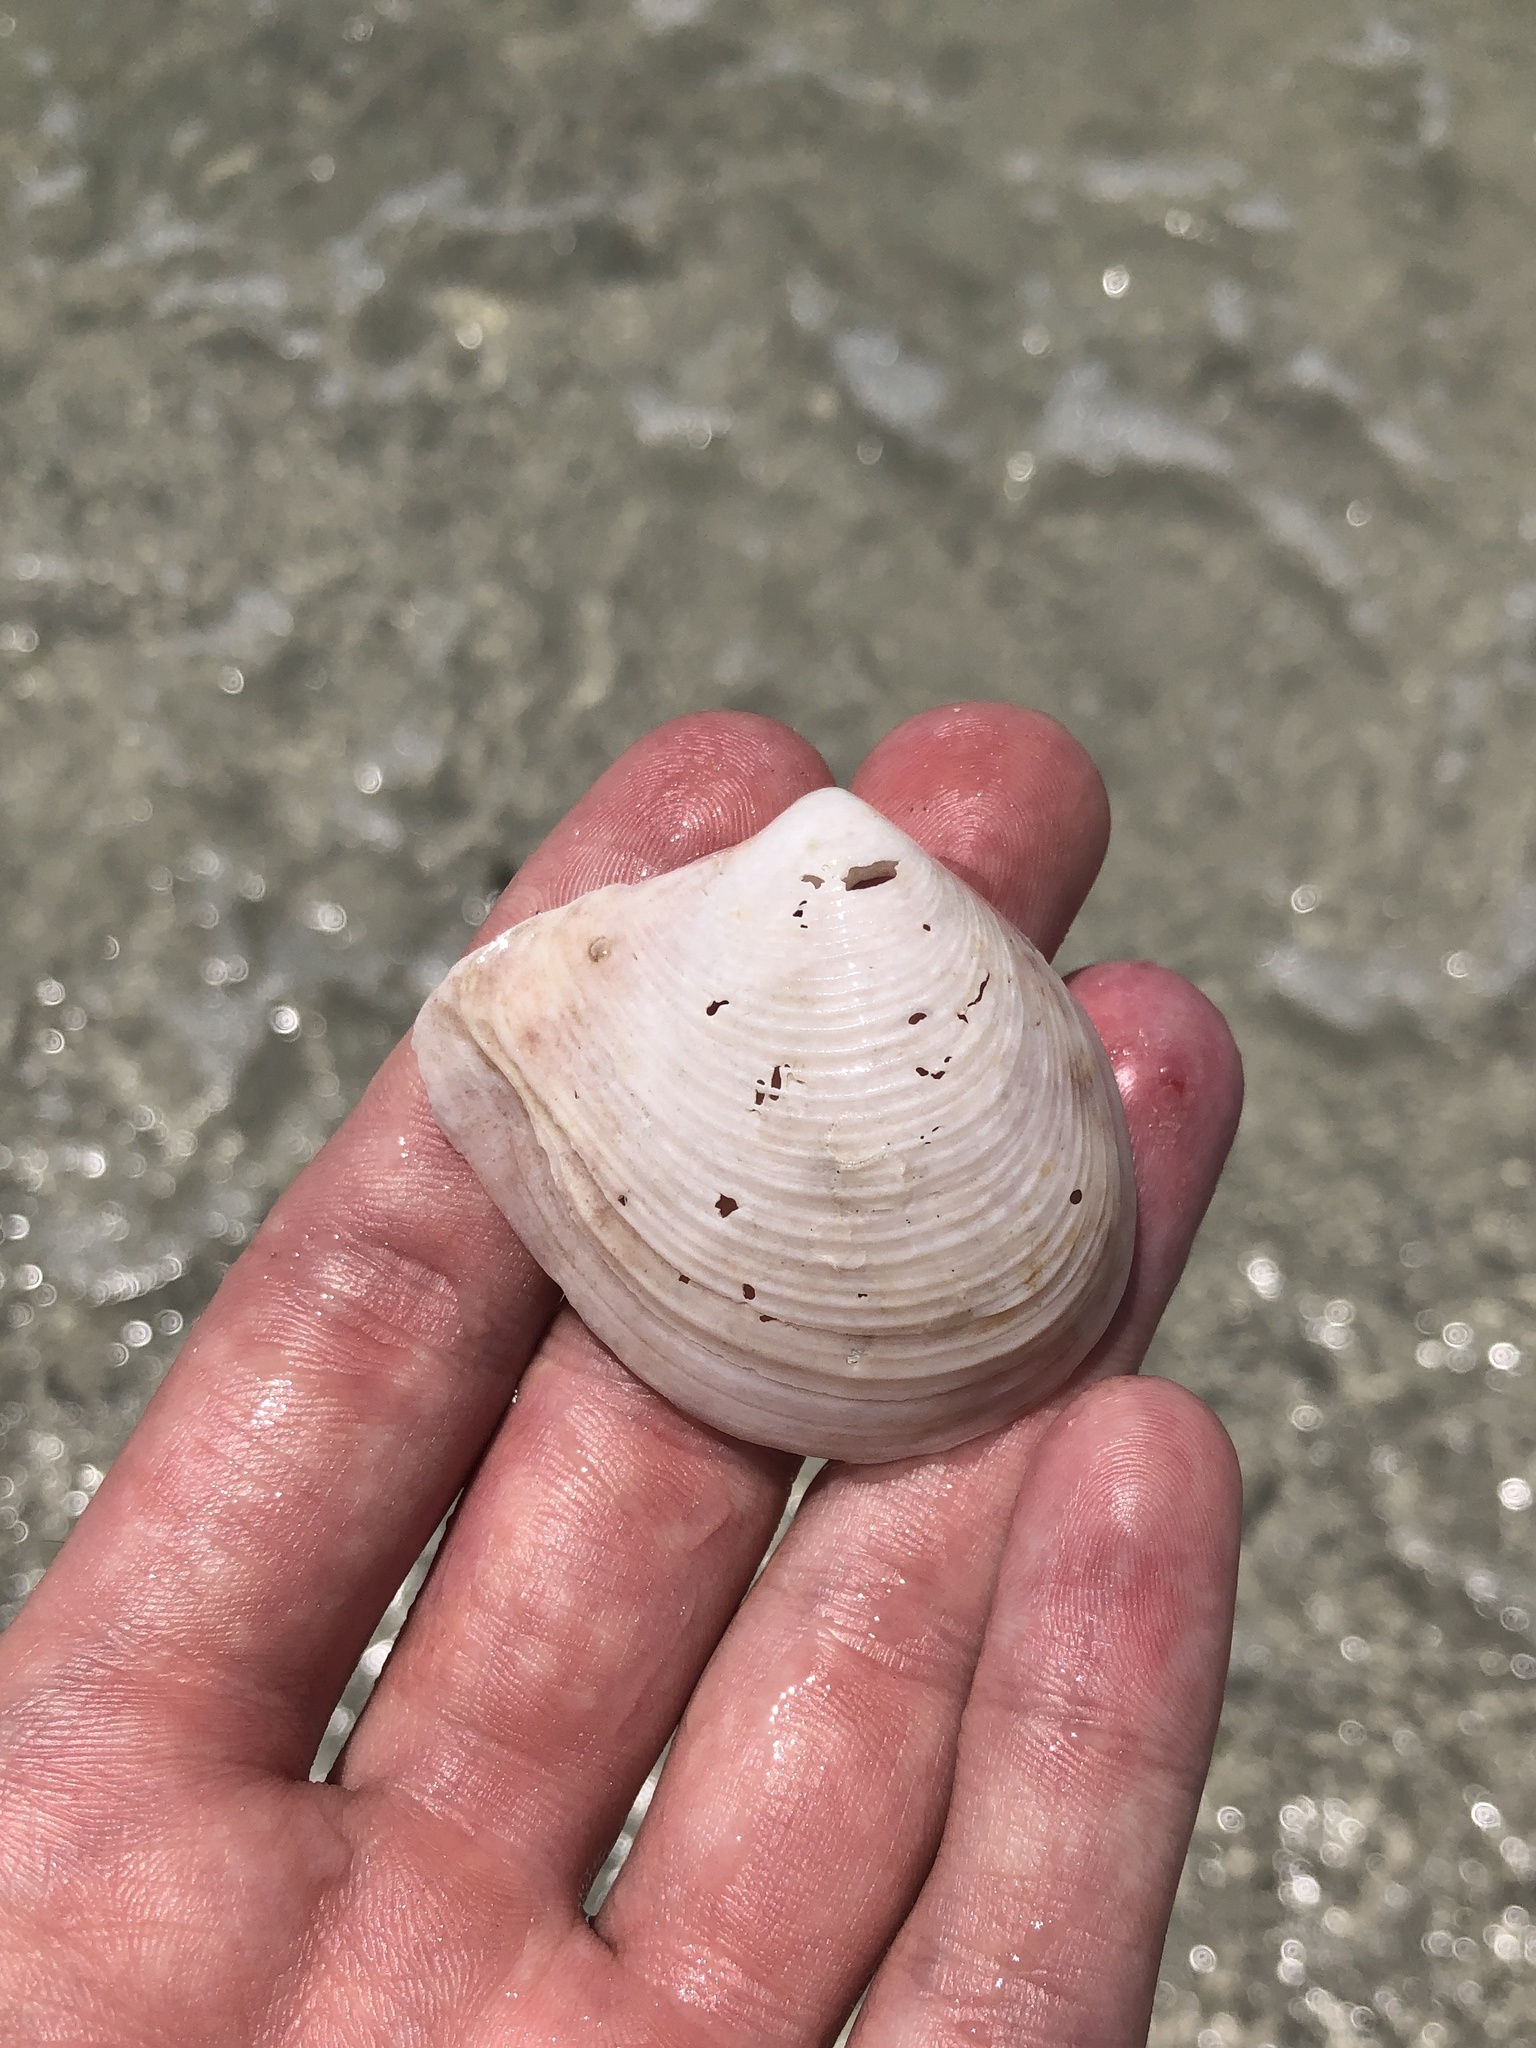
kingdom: Animalia
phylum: Mollusca
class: Bivalvia
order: Venerida
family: Anatinellidae
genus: Raeta
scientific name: Raeta plicatella
